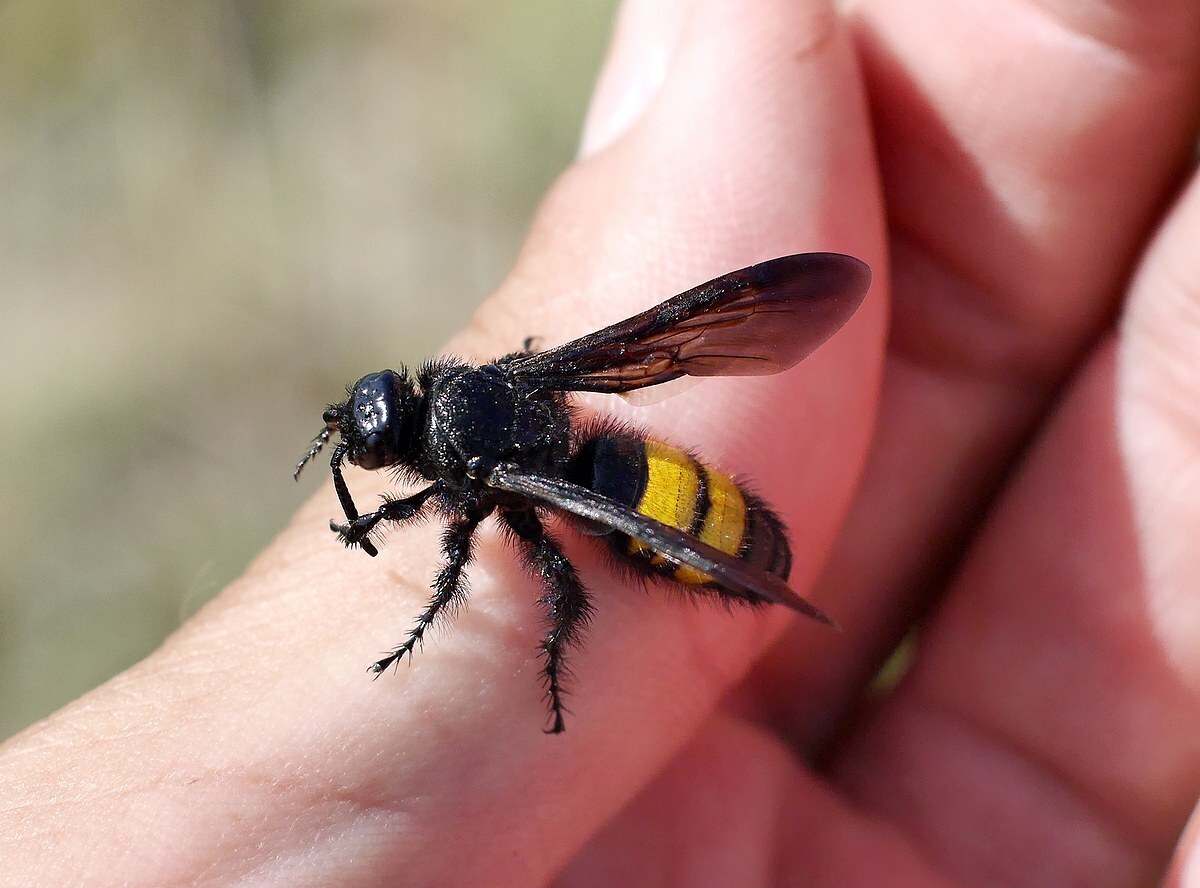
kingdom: Animalia
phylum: Arthropoda
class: Insecta
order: Hymenoptera
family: Scoliidae
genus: Scolia
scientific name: Scolia hirta
